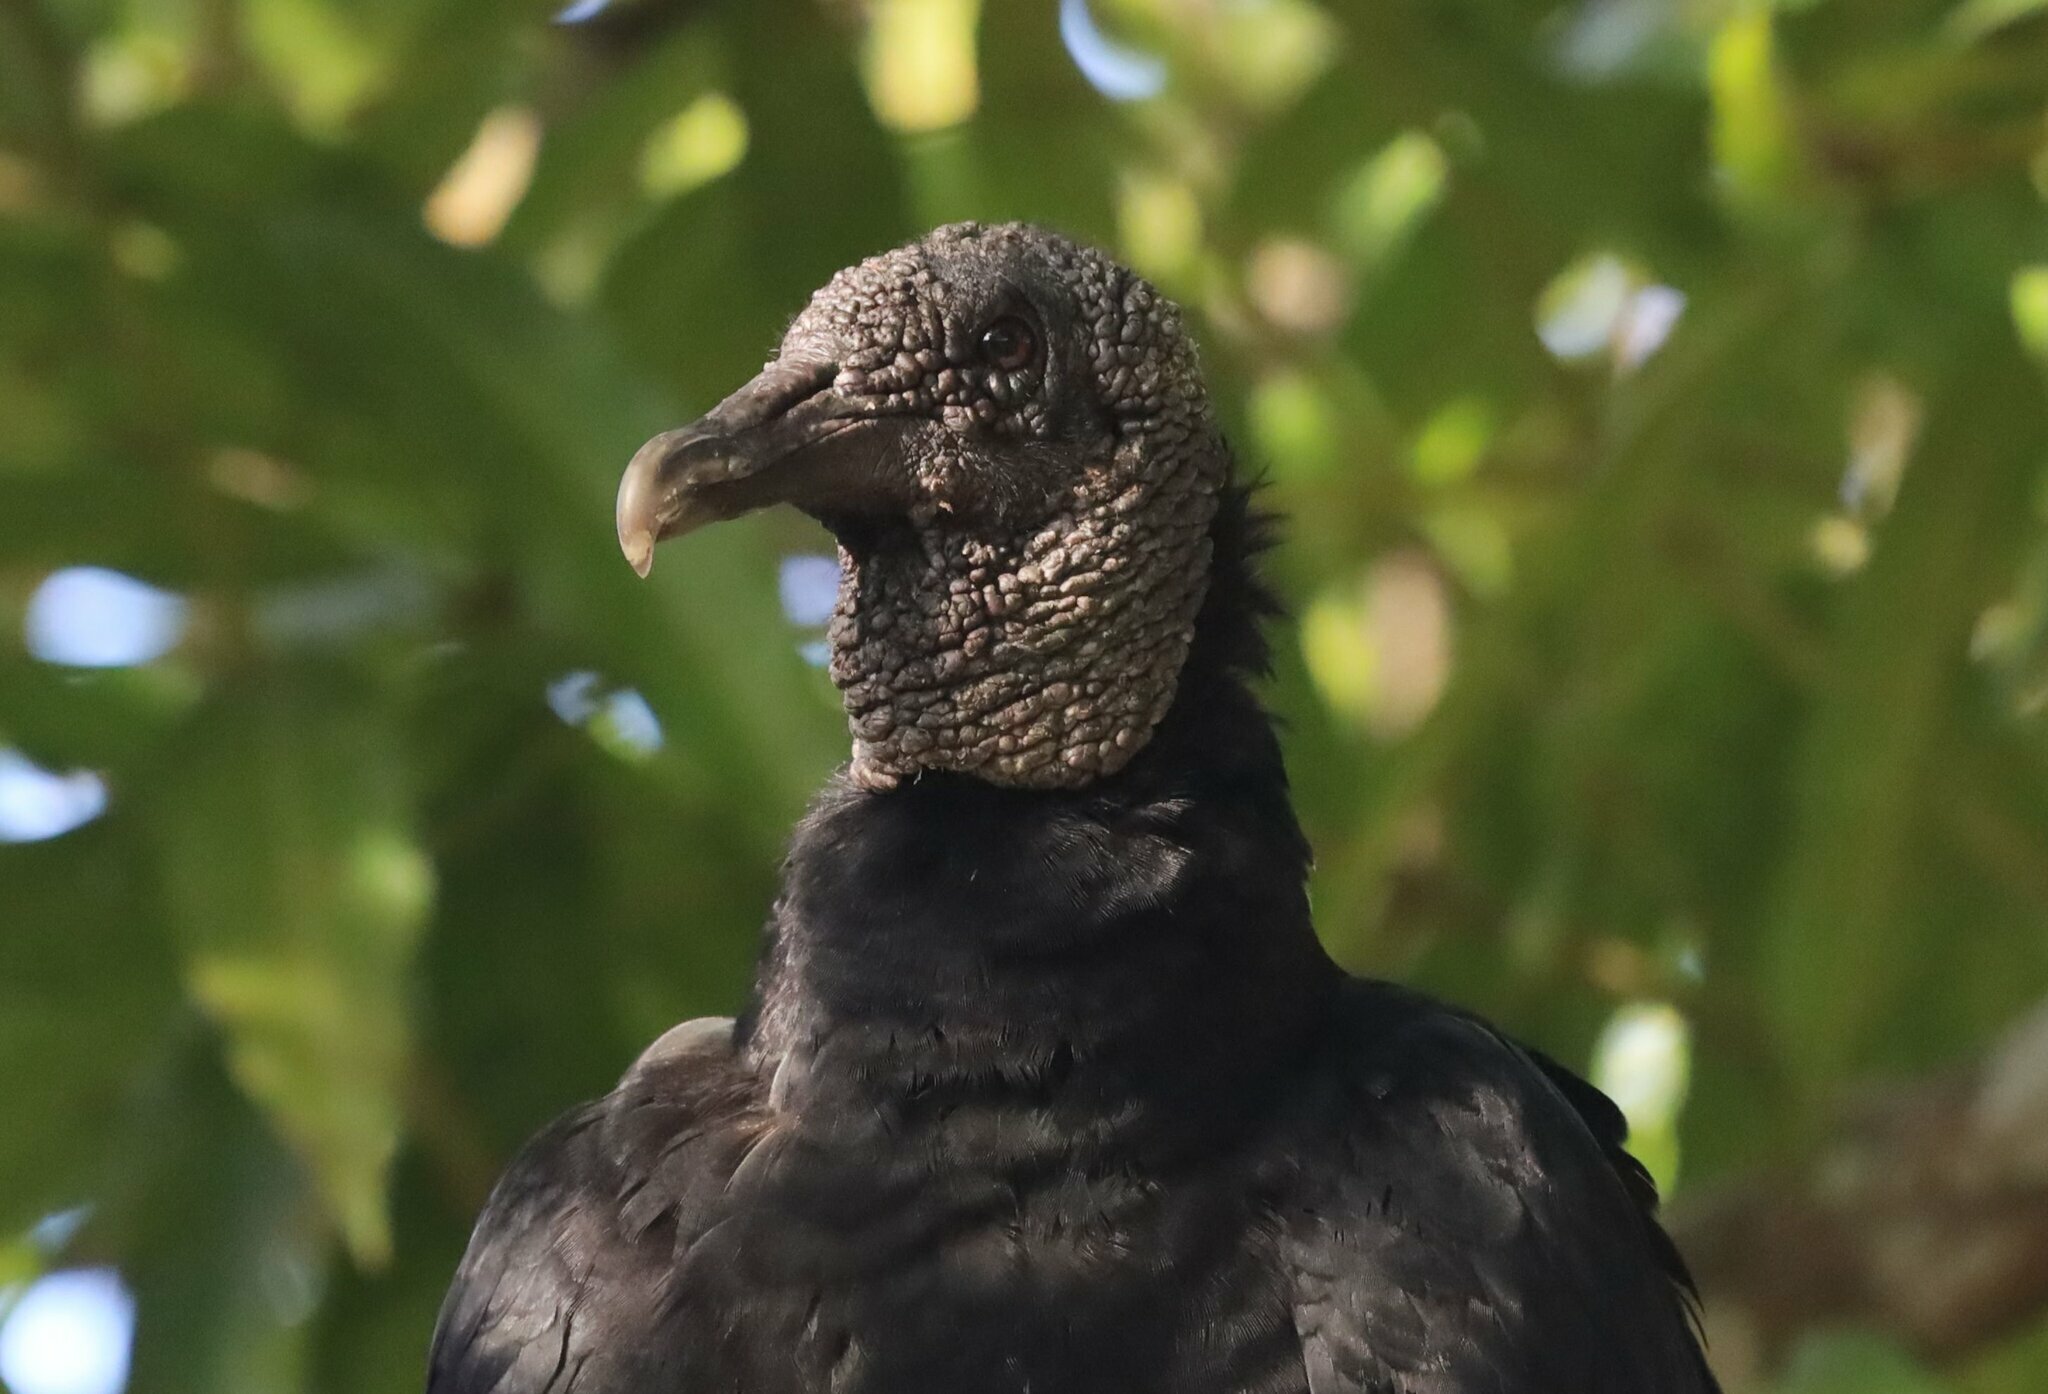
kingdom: Animalia
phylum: Chordata
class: Aves
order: Accipitriformes
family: Cathartidae
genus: Coragyps
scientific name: Coragyps atratus
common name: Black vulture
